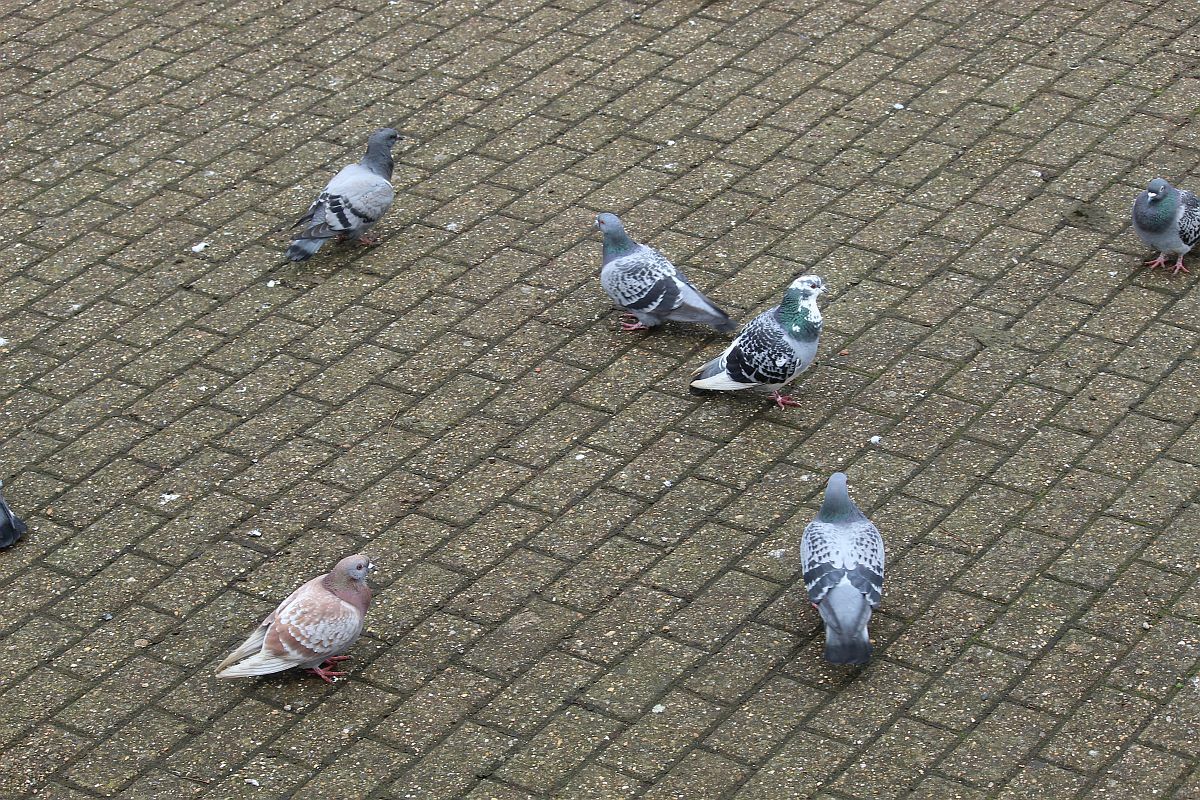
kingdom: Animalia
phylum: Chordata
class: Aves
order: Columbiformes
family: Columbidae
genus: Columba
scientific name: Columba livia
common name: Rock pigeon
